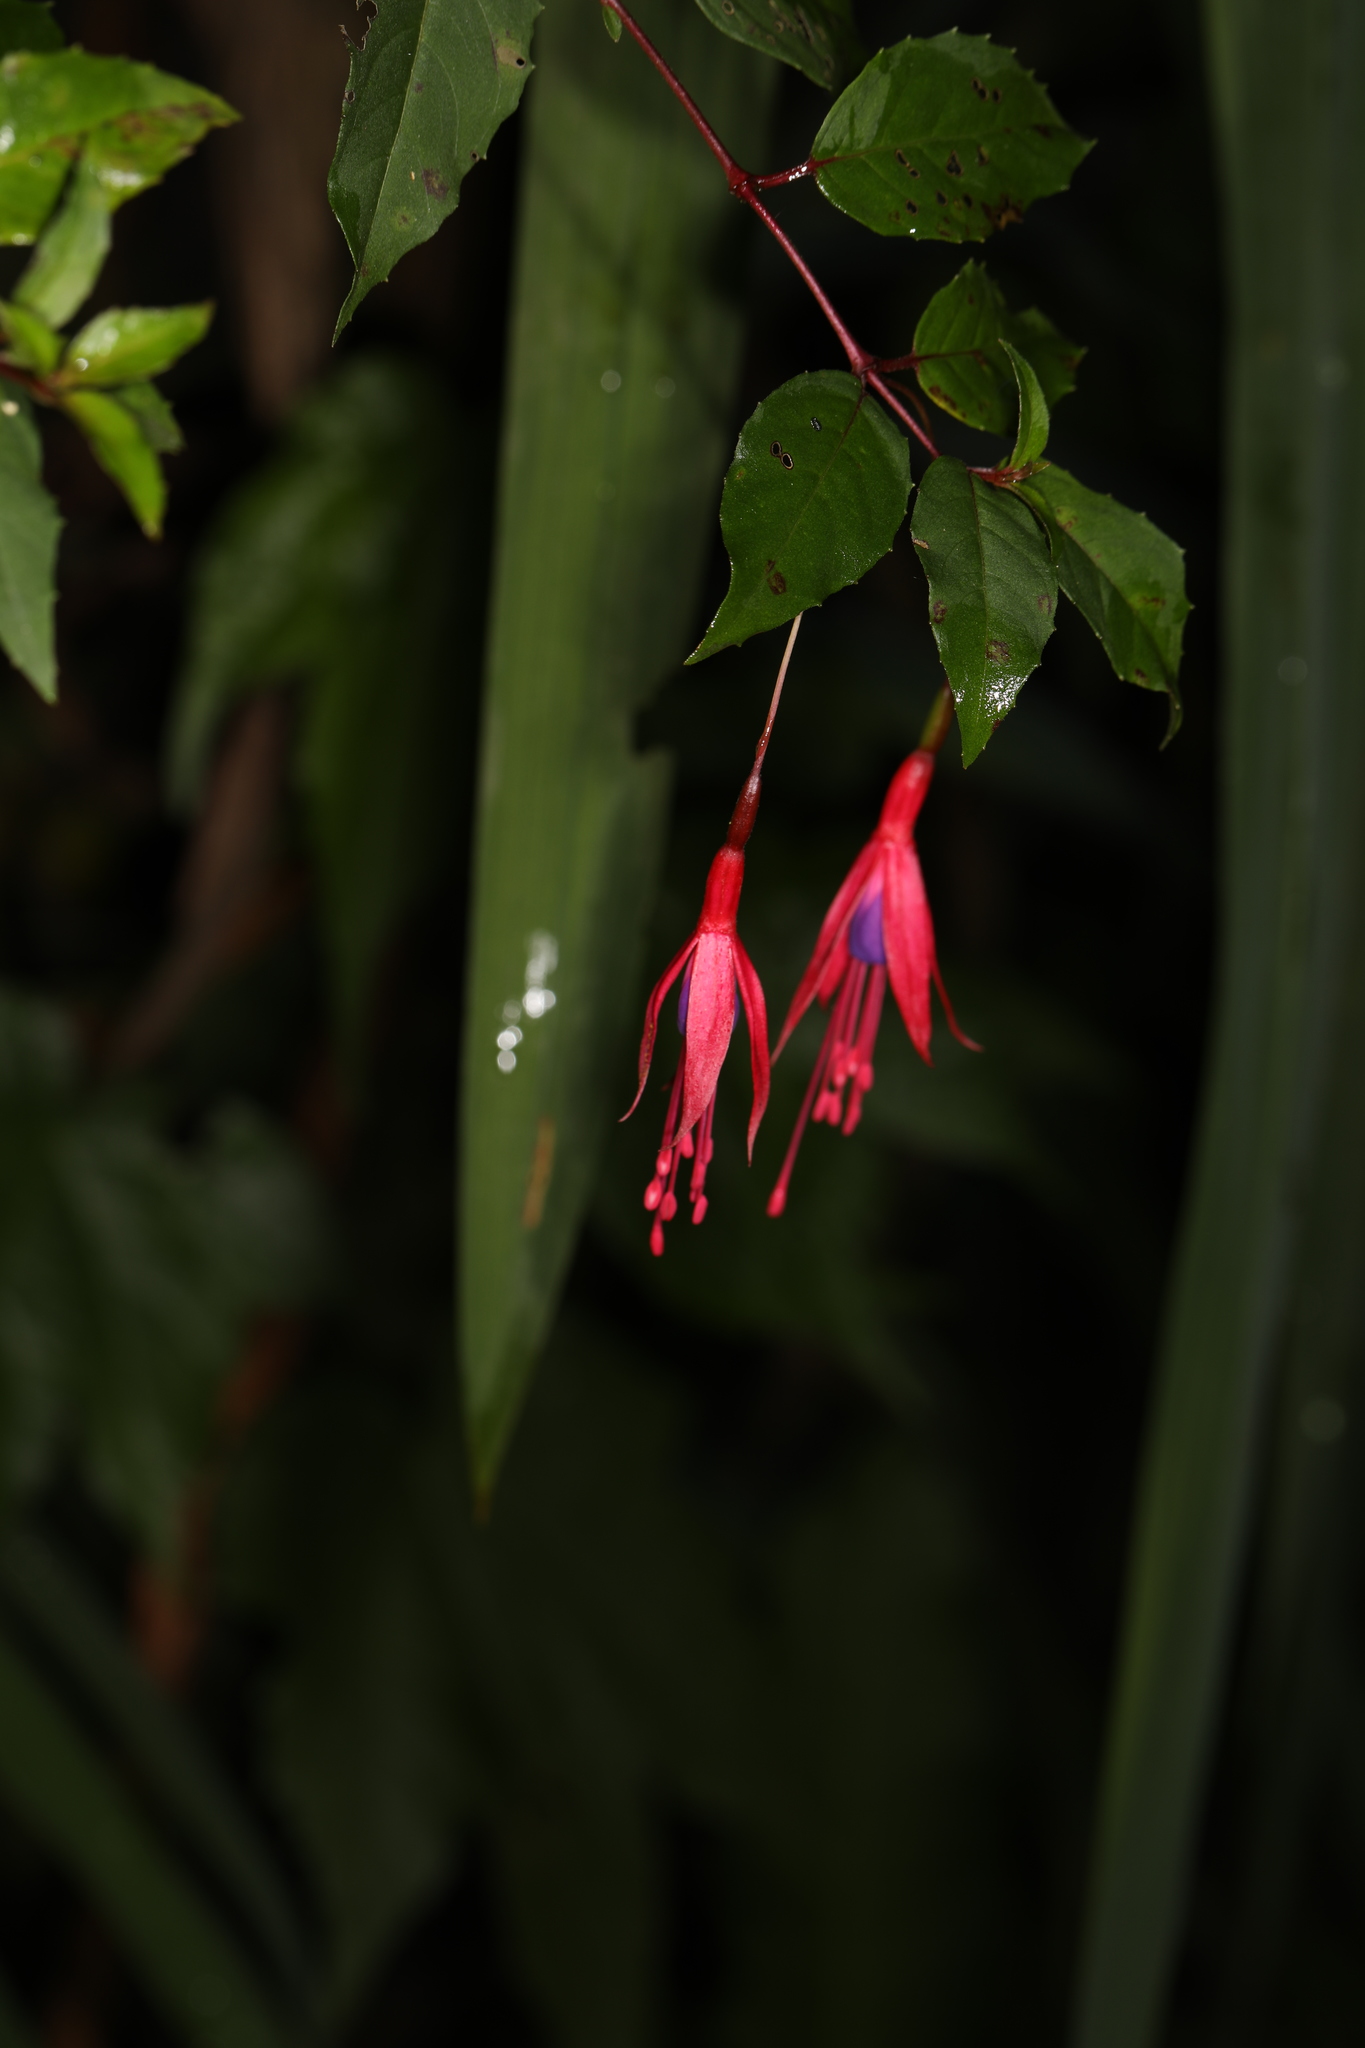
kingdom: Plantae
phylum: Tracheophyta
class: Magnoliopsida
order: Myrtales
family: Onagraceae
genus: Fuchsia
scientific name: Fuchsia magellanica
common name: Hardy fuchsia
